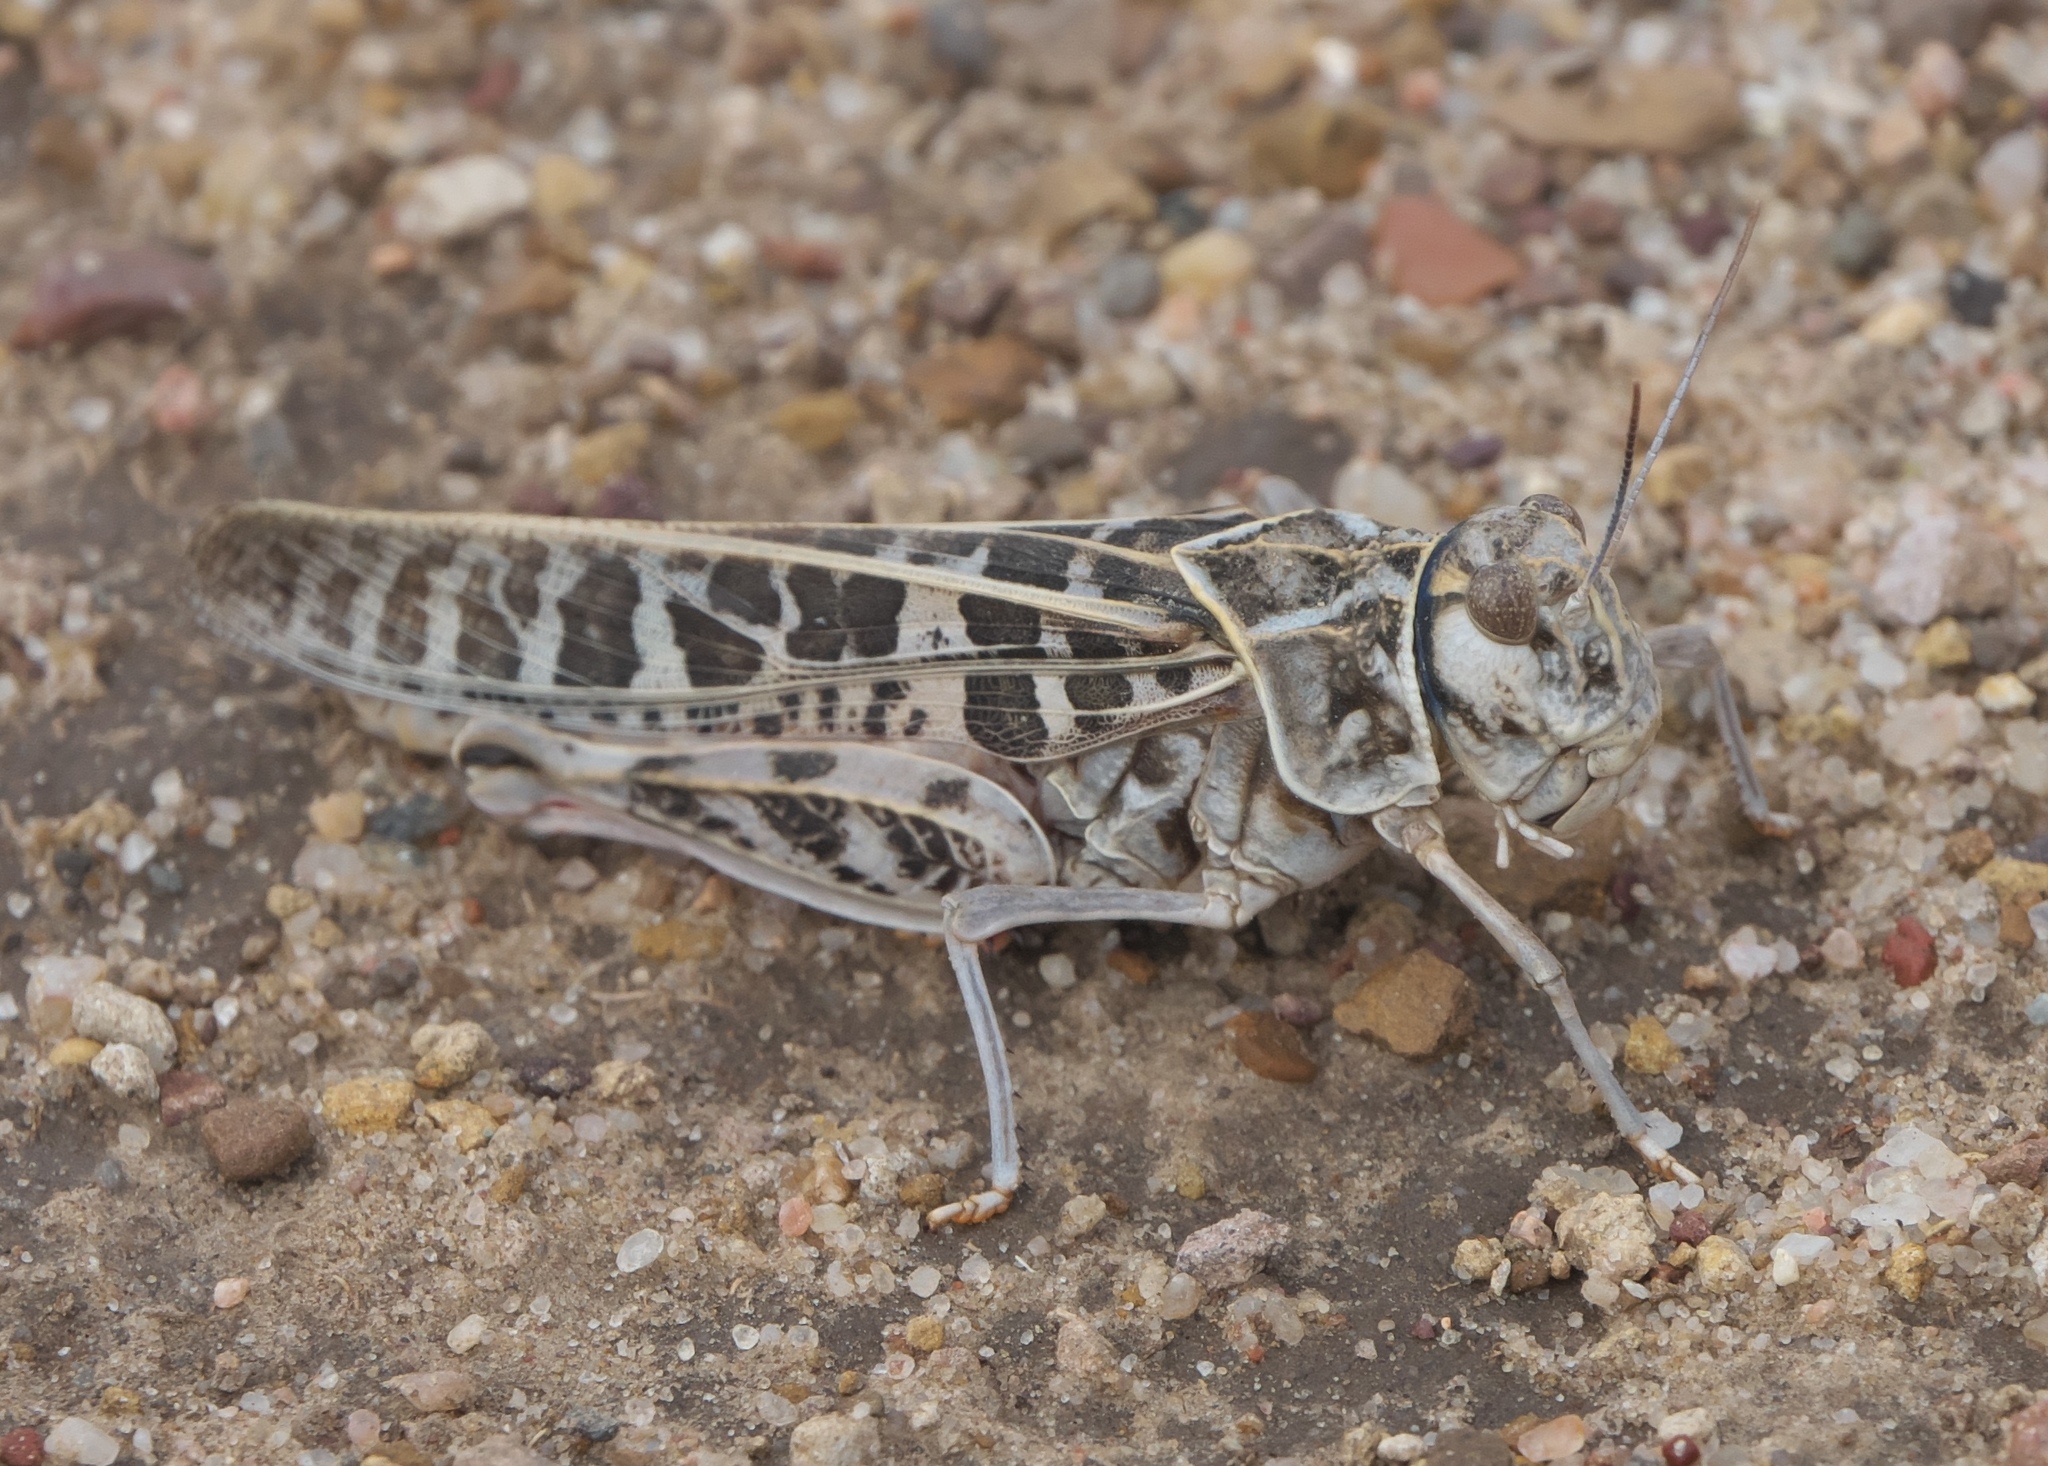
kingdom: Animalia
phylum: Arthropoda
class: Insecta
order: Orthoptera
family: Acrididae
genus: Xanthippus
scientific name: Xanthippus corallipes
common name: Redshanked grasshopper
